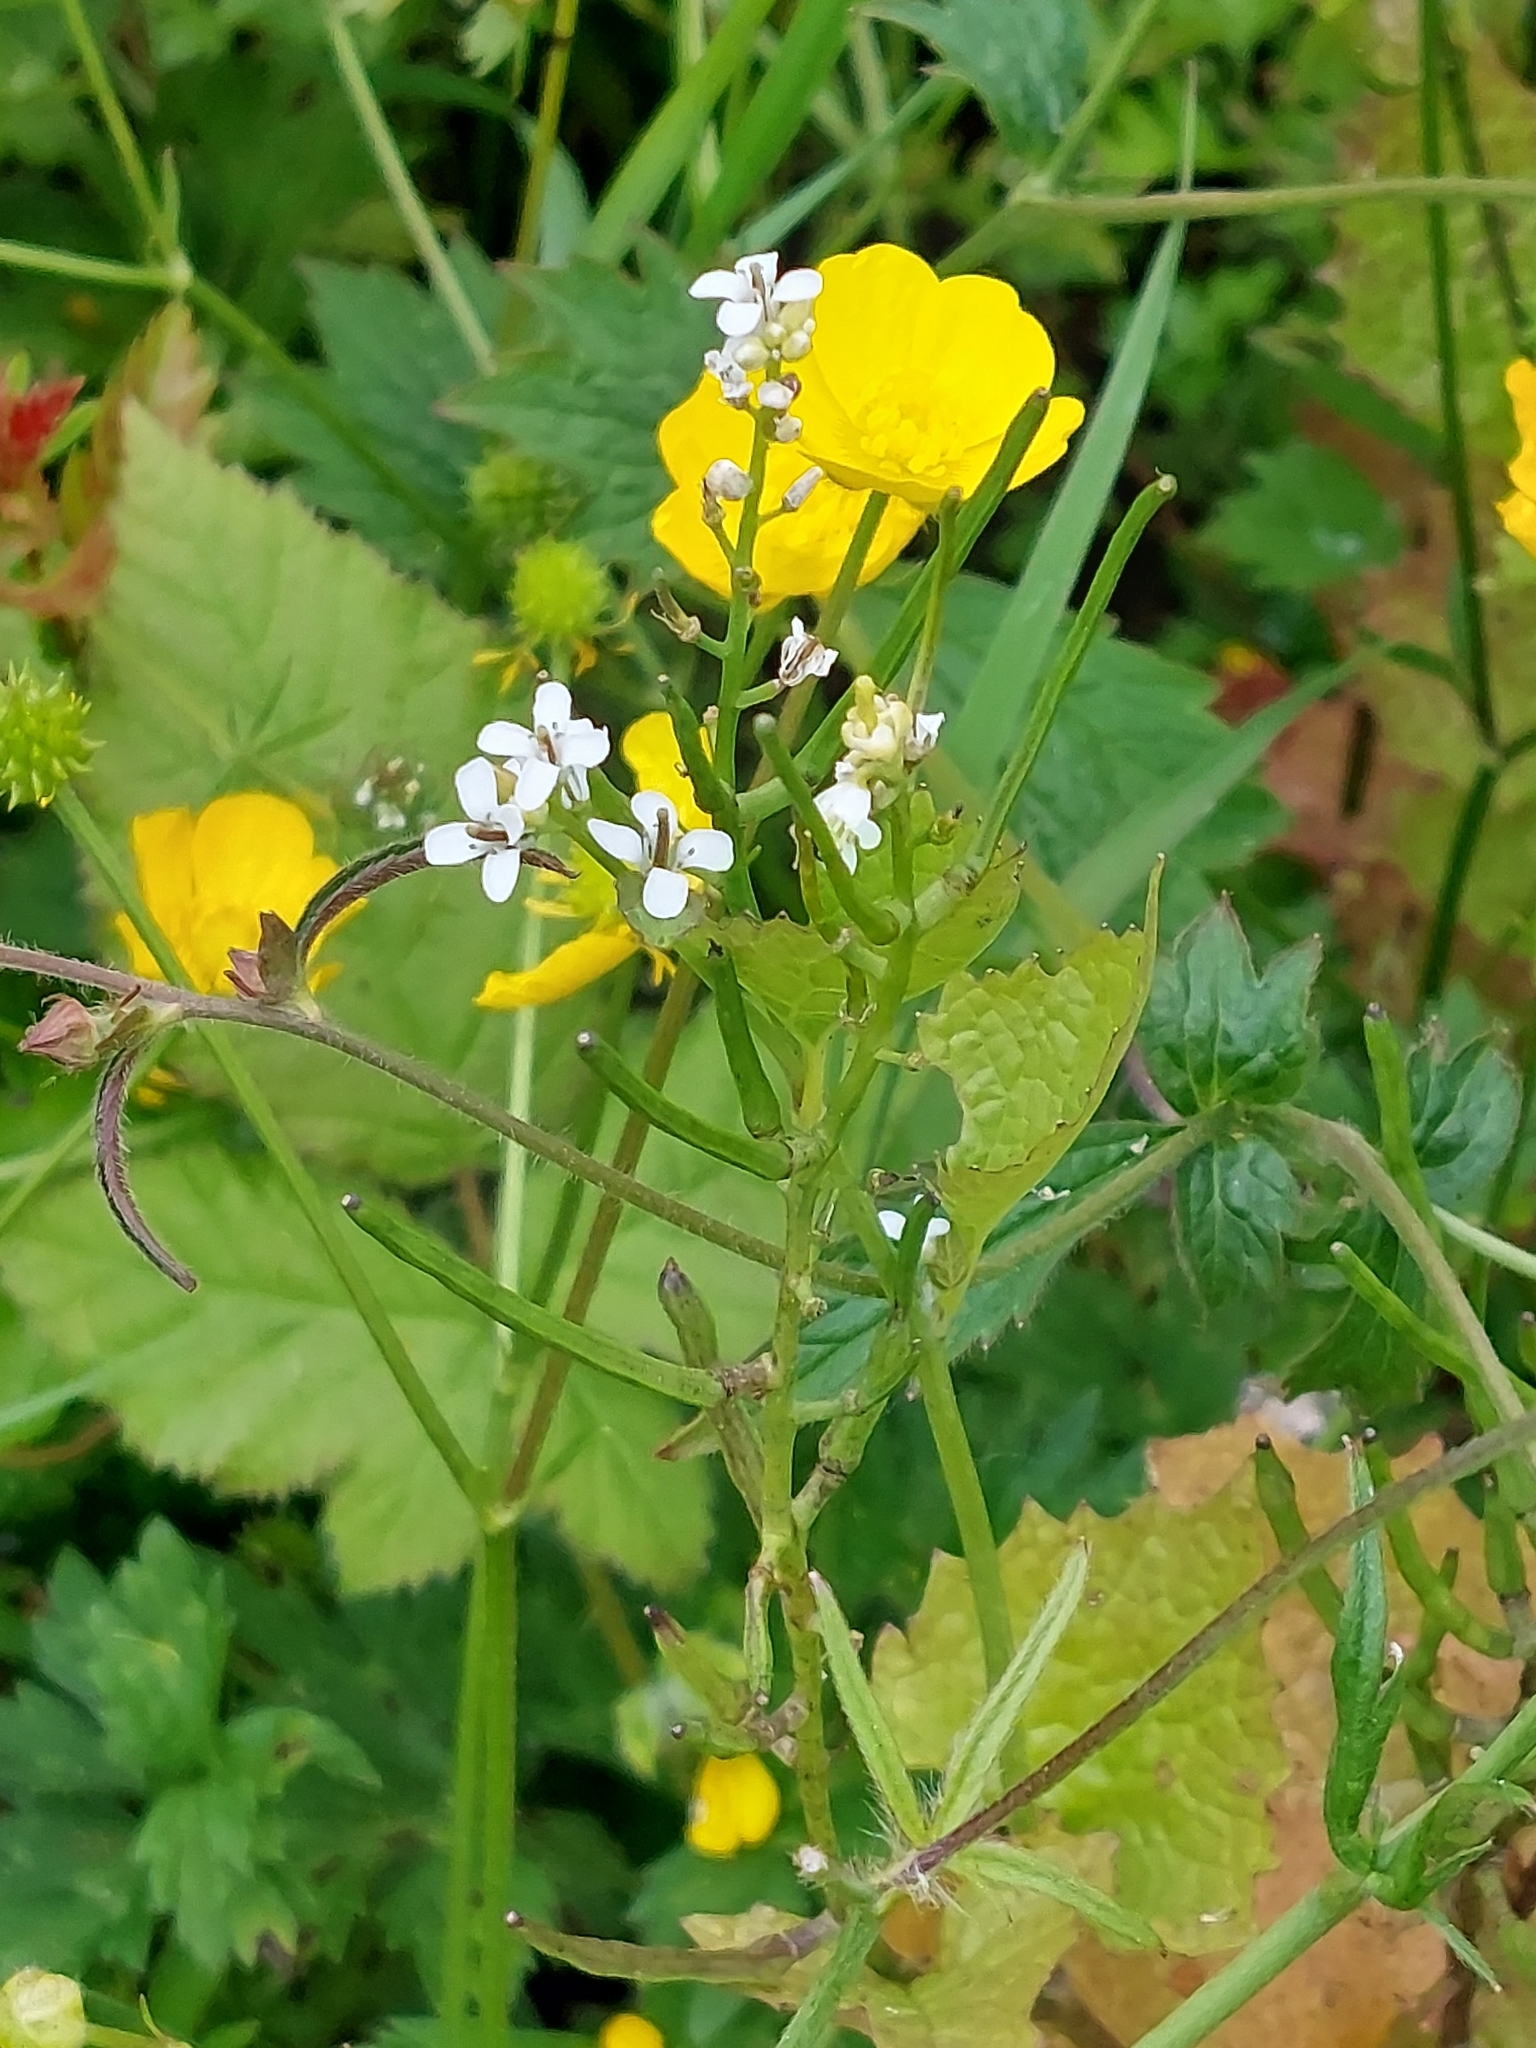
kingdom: Plantae
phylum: Tracheophyta
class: Magnoliopsida
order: Brassicales
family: Brassicaceae
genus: Alliaria
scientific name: Alliaria petiolata
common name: Garlic mustard
